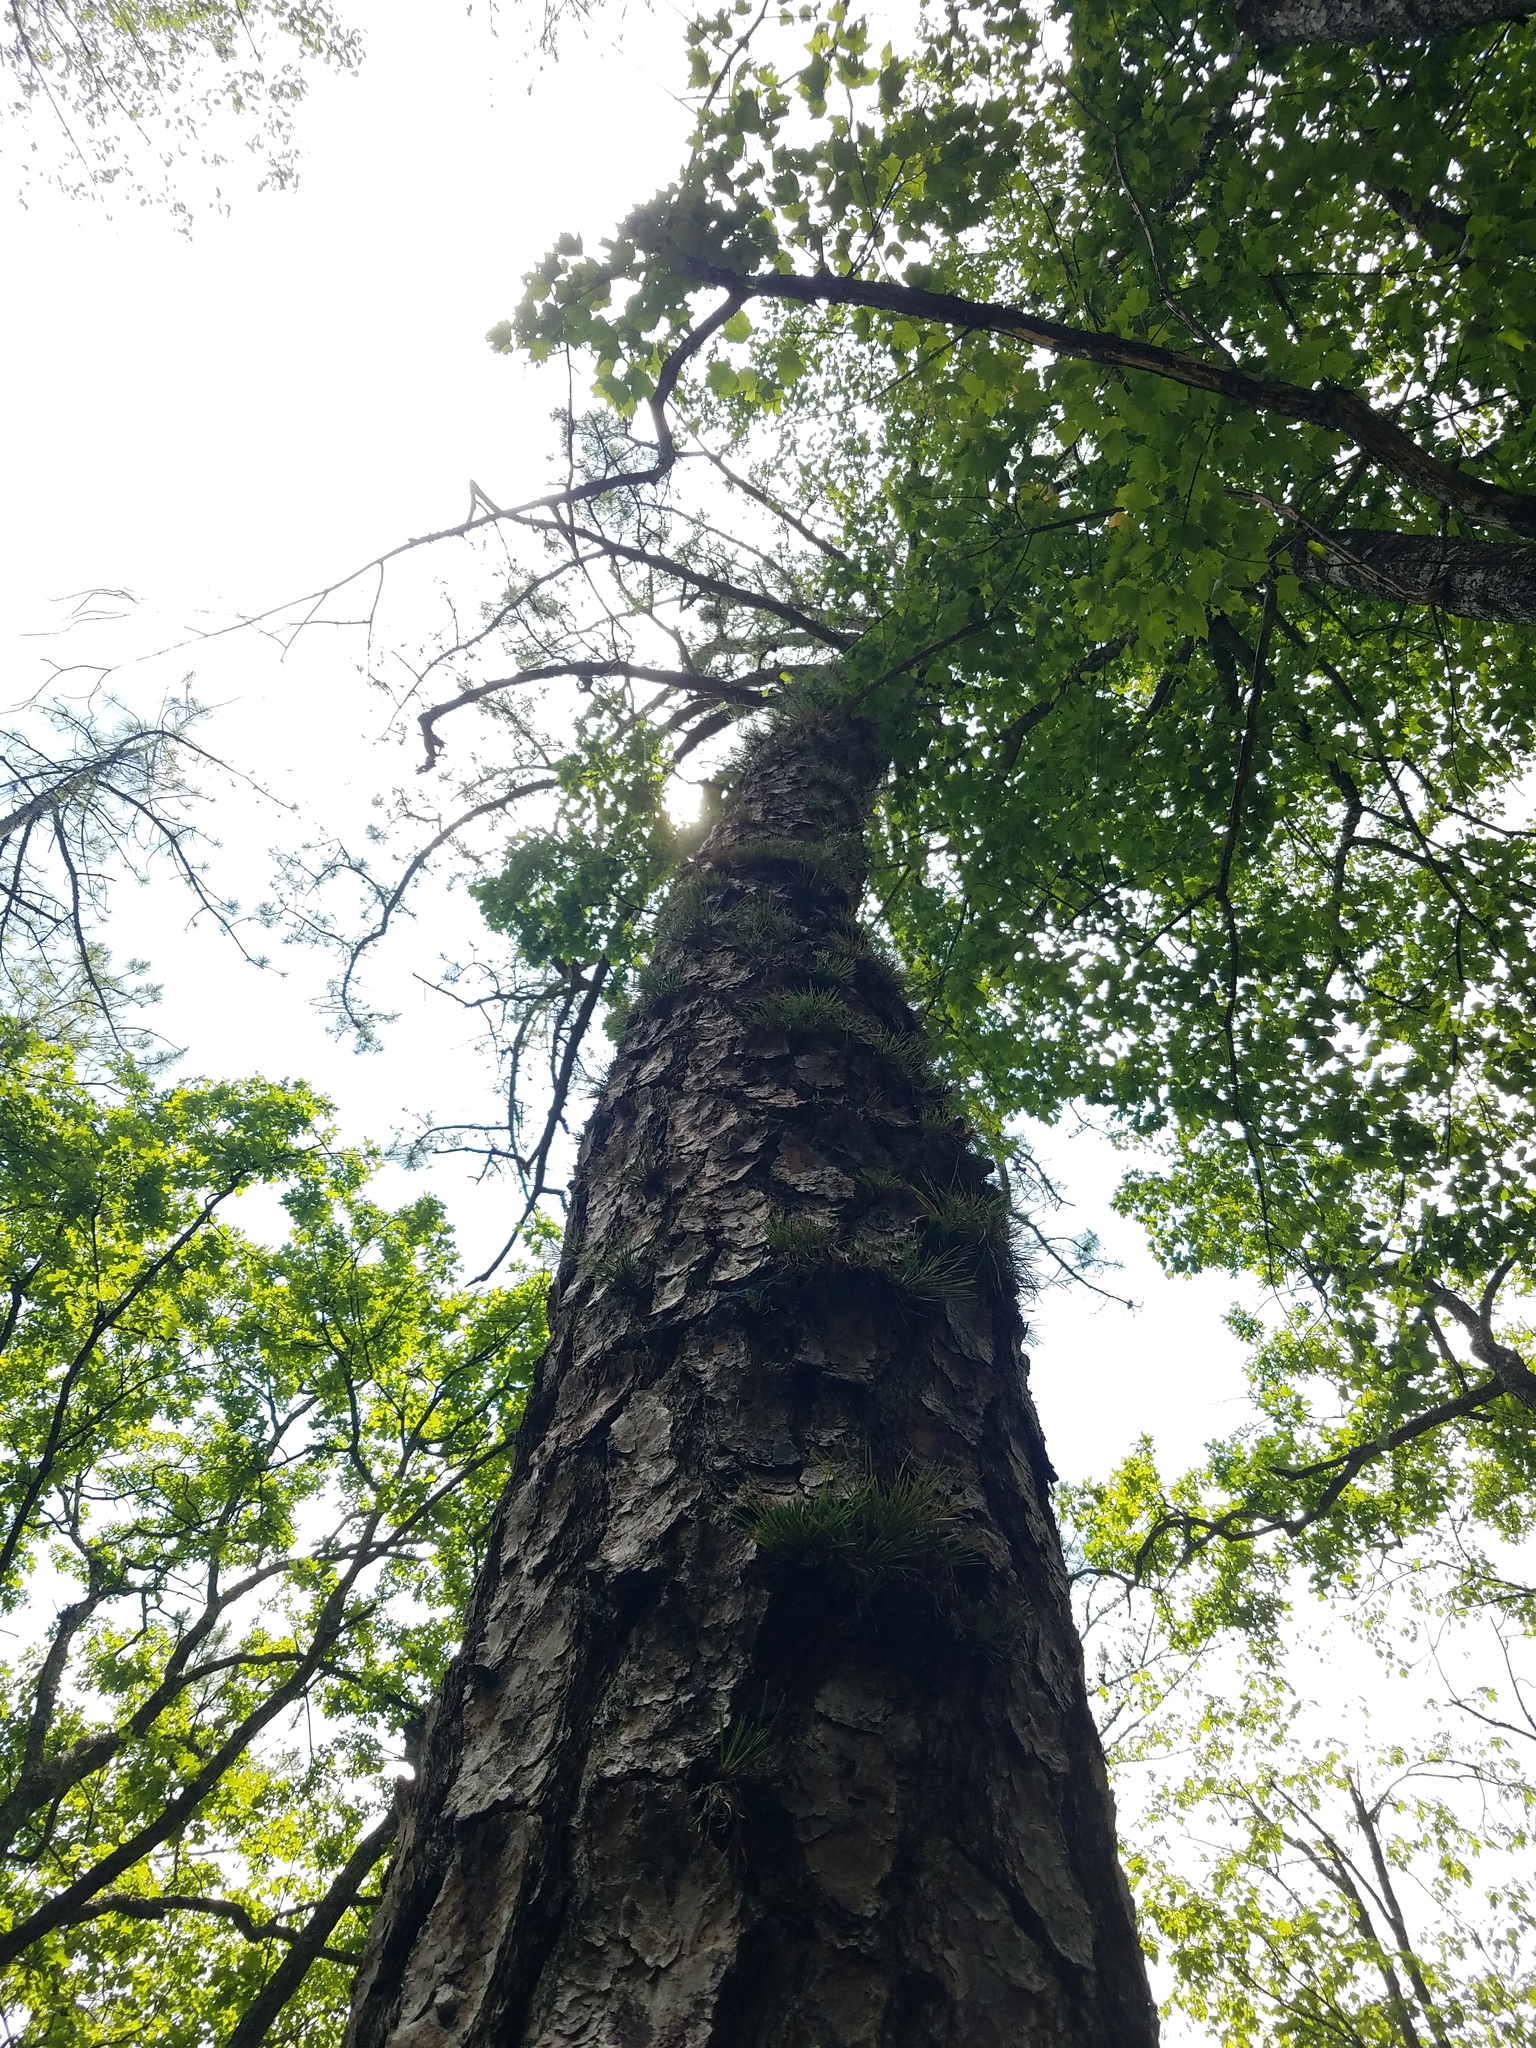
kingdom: Plantae
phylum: Tracheophyta
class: Pinopsida
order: Pinales
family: Pinaceae
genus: Pinus
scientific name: Pinus rigida
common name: Pitch pine
